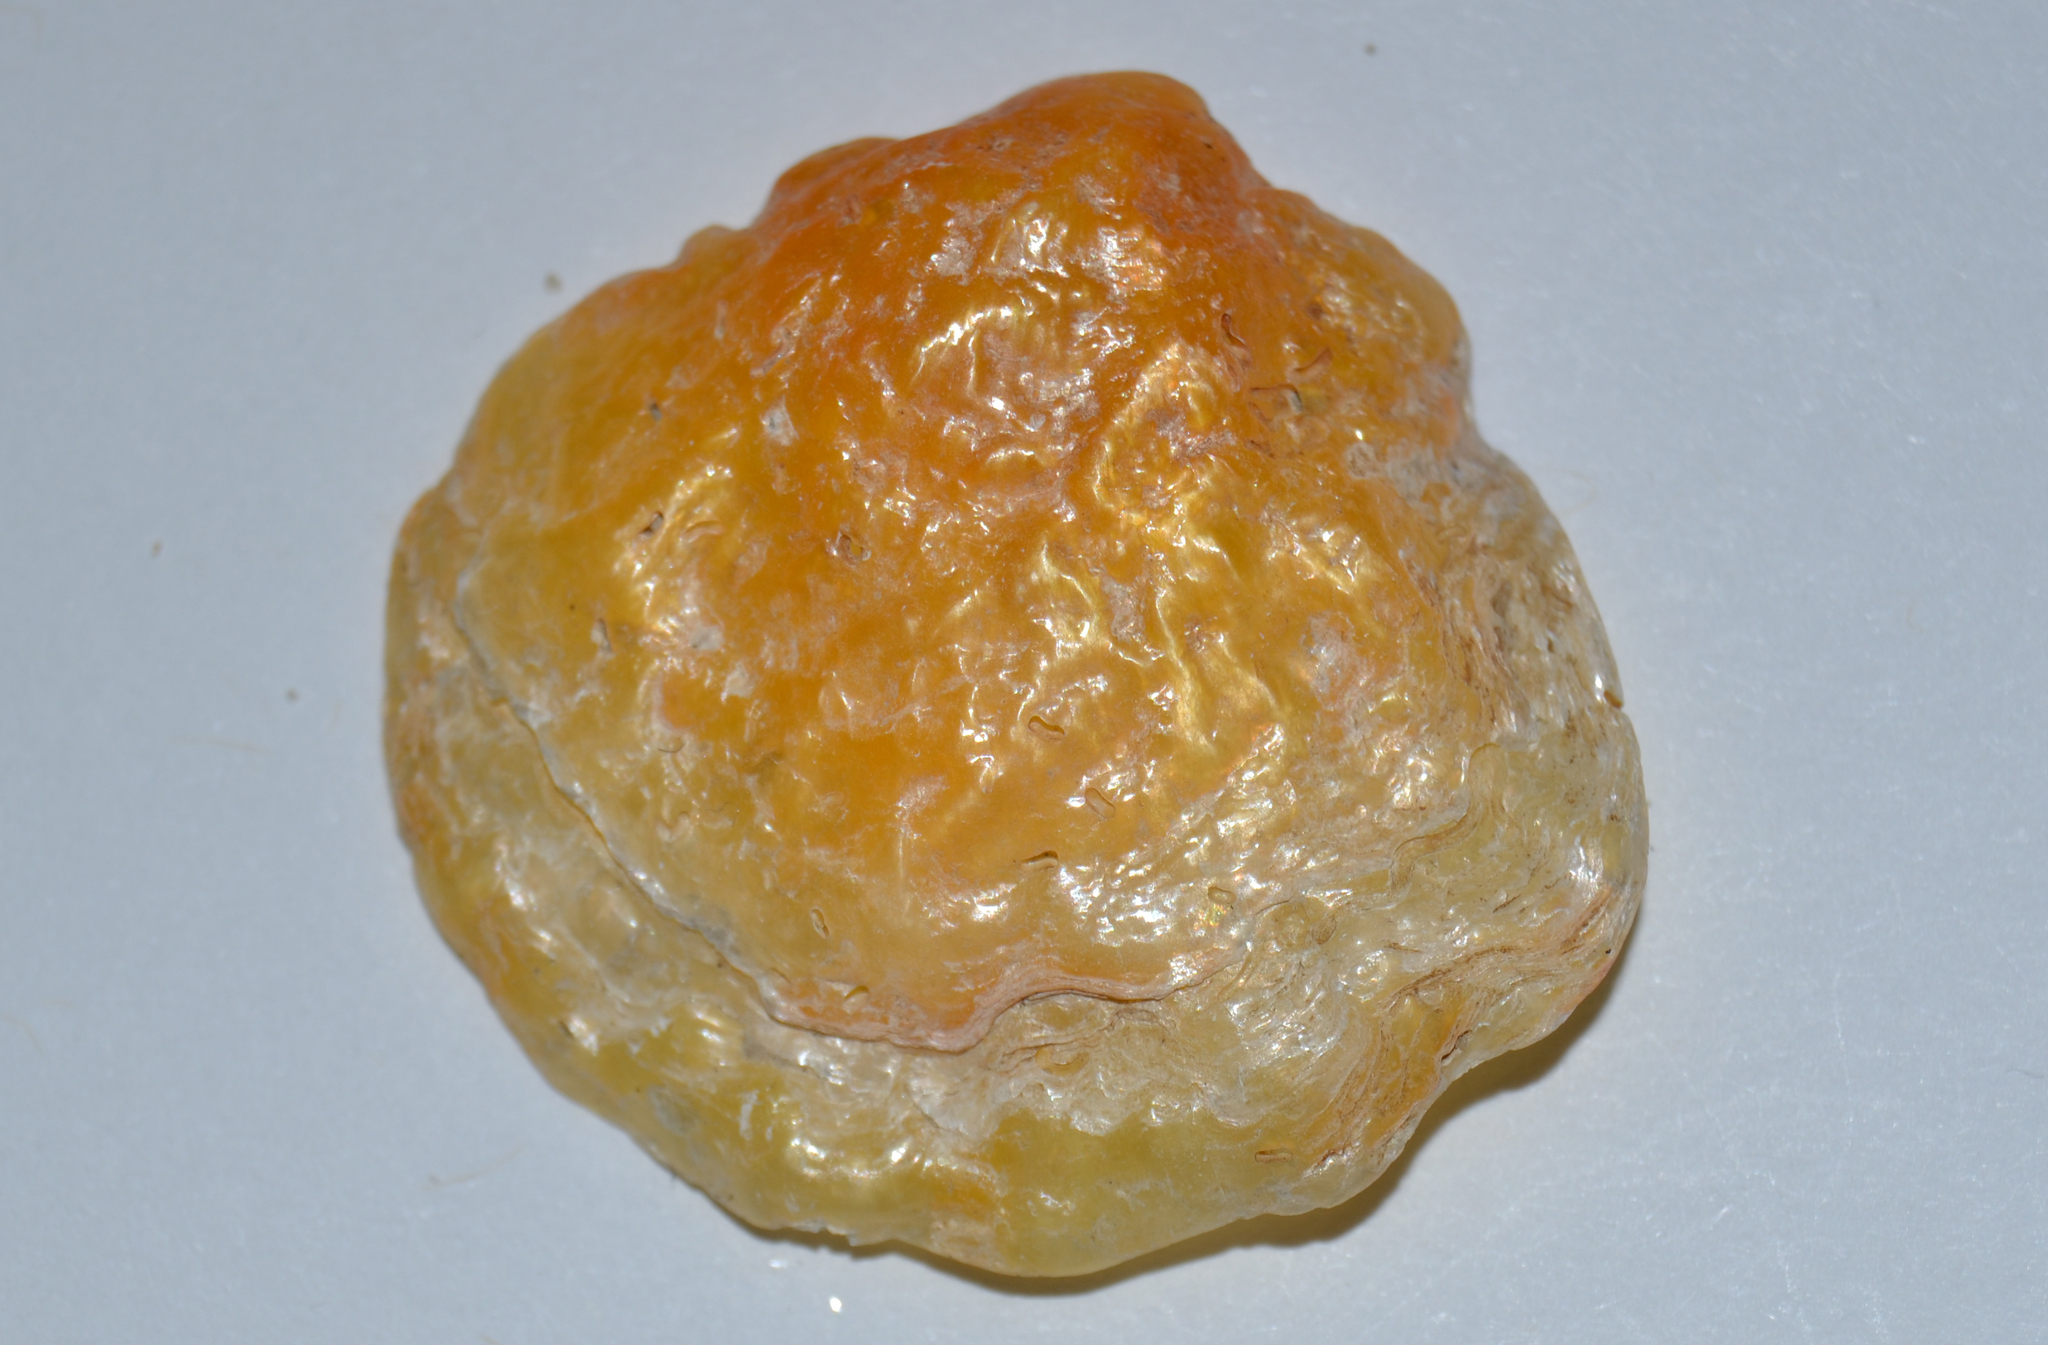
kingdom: Animalia
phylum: Mollusca
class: Bivalvia
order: Pectinida
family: Anomiidae
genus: Anomia
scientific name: Anomia simplex
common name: Common jingle shell
